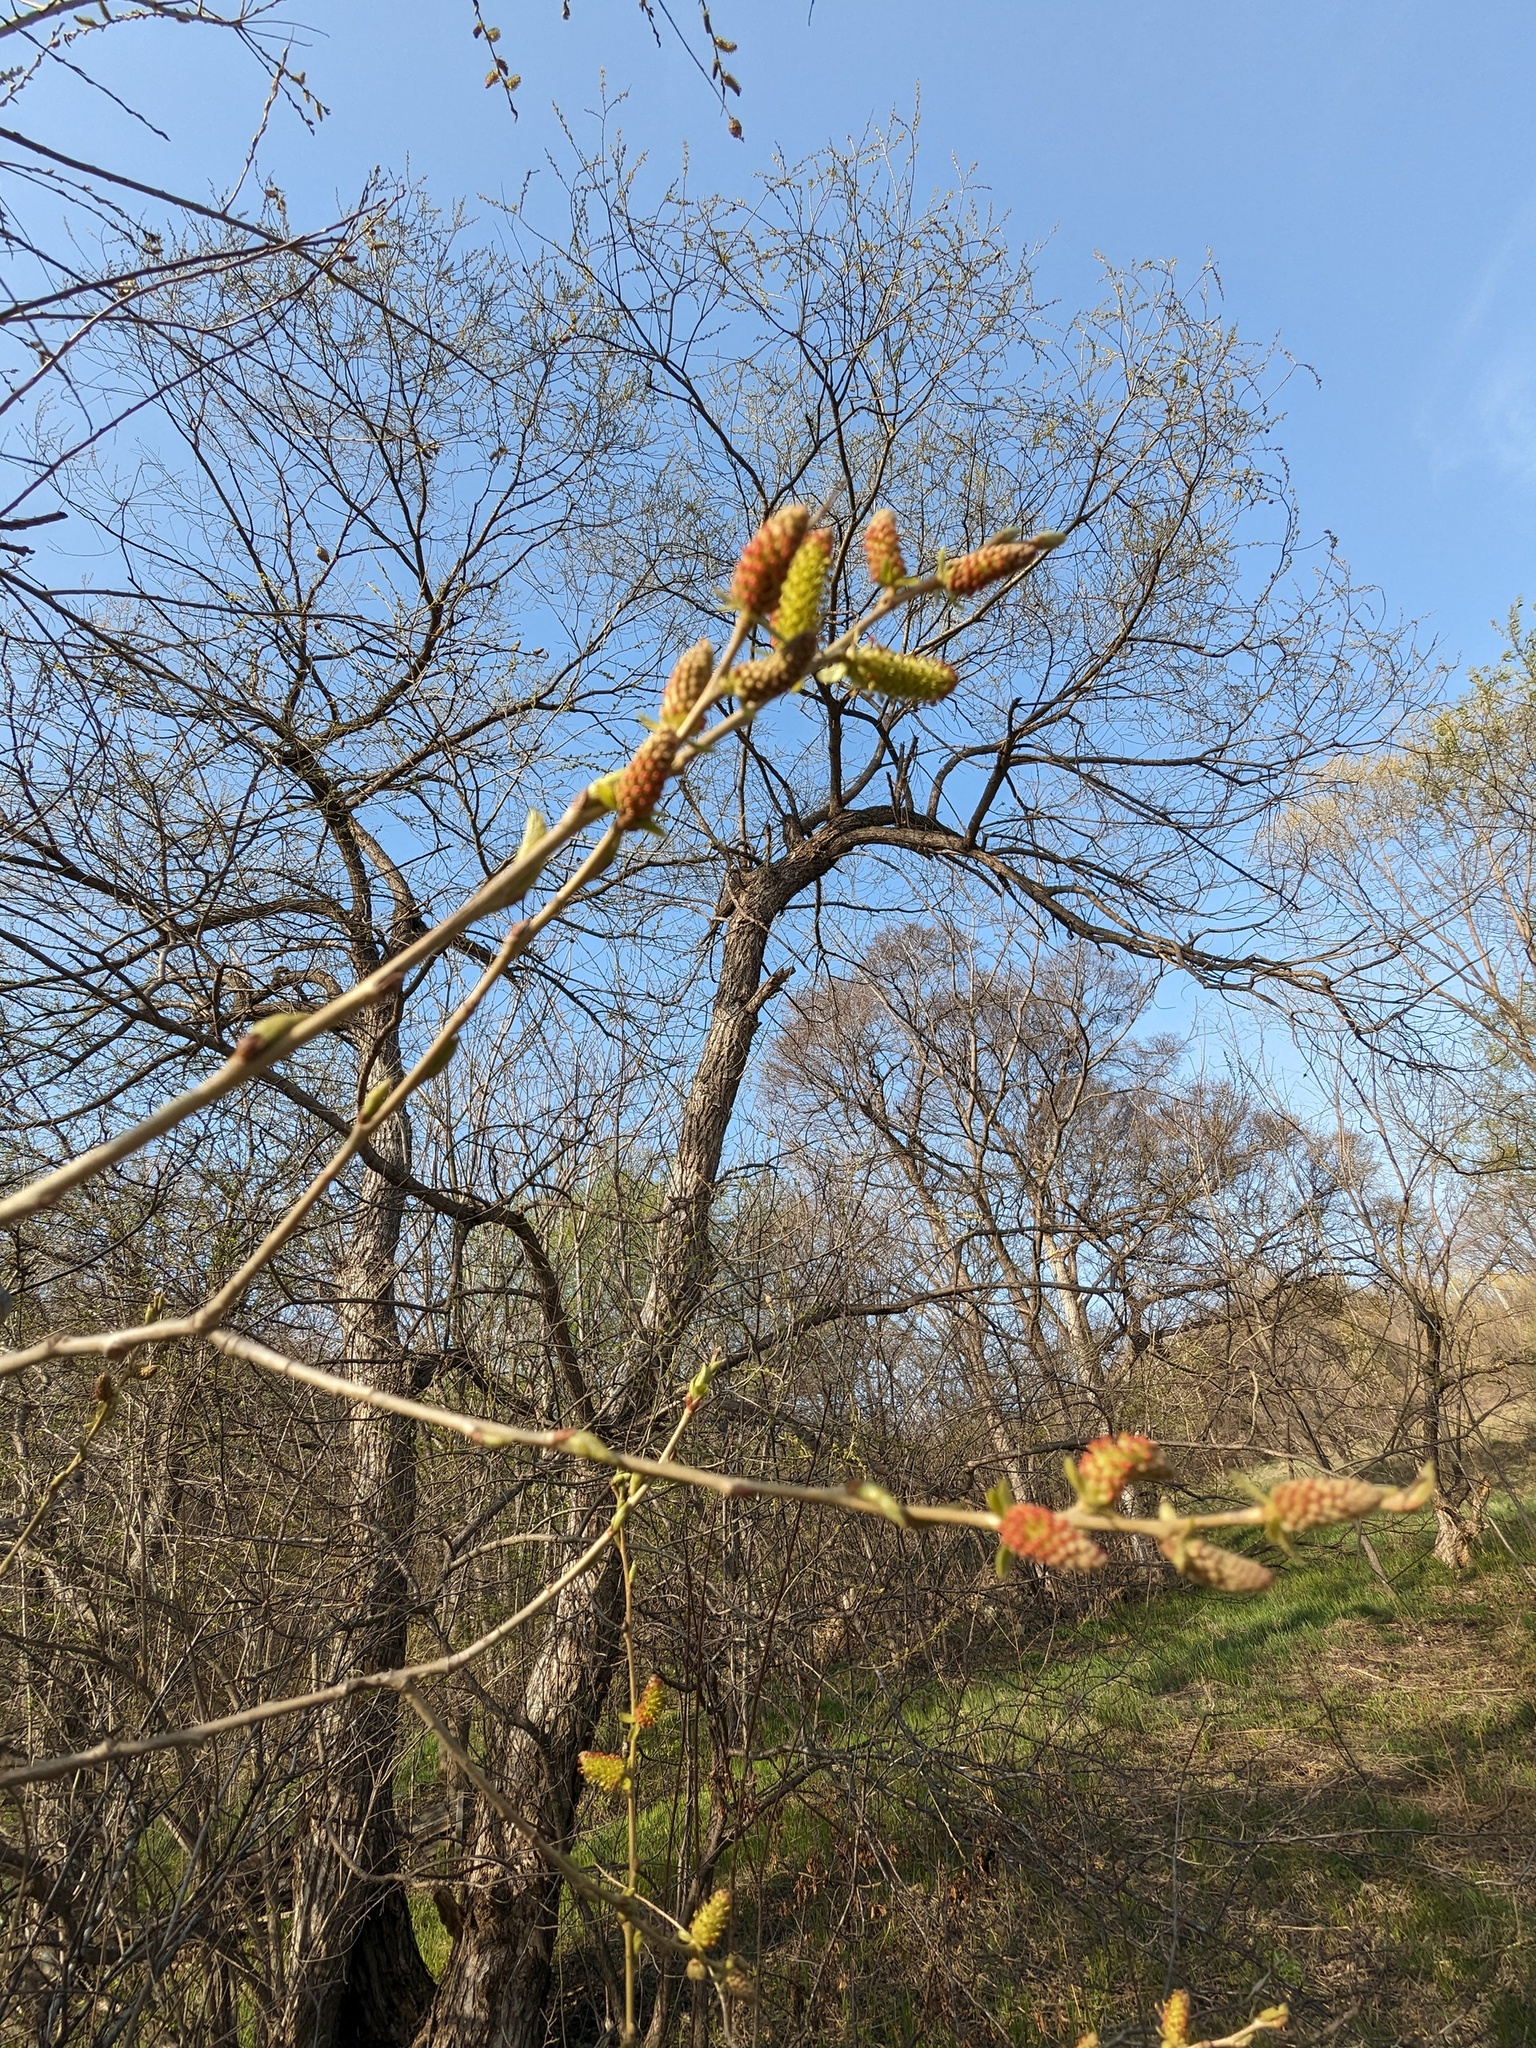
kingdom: Plantae
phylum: Tracheophyta
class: Magnoliopsida
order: Malpighiales
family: Salicaceae
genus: Salix
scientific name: Salix pierotii
